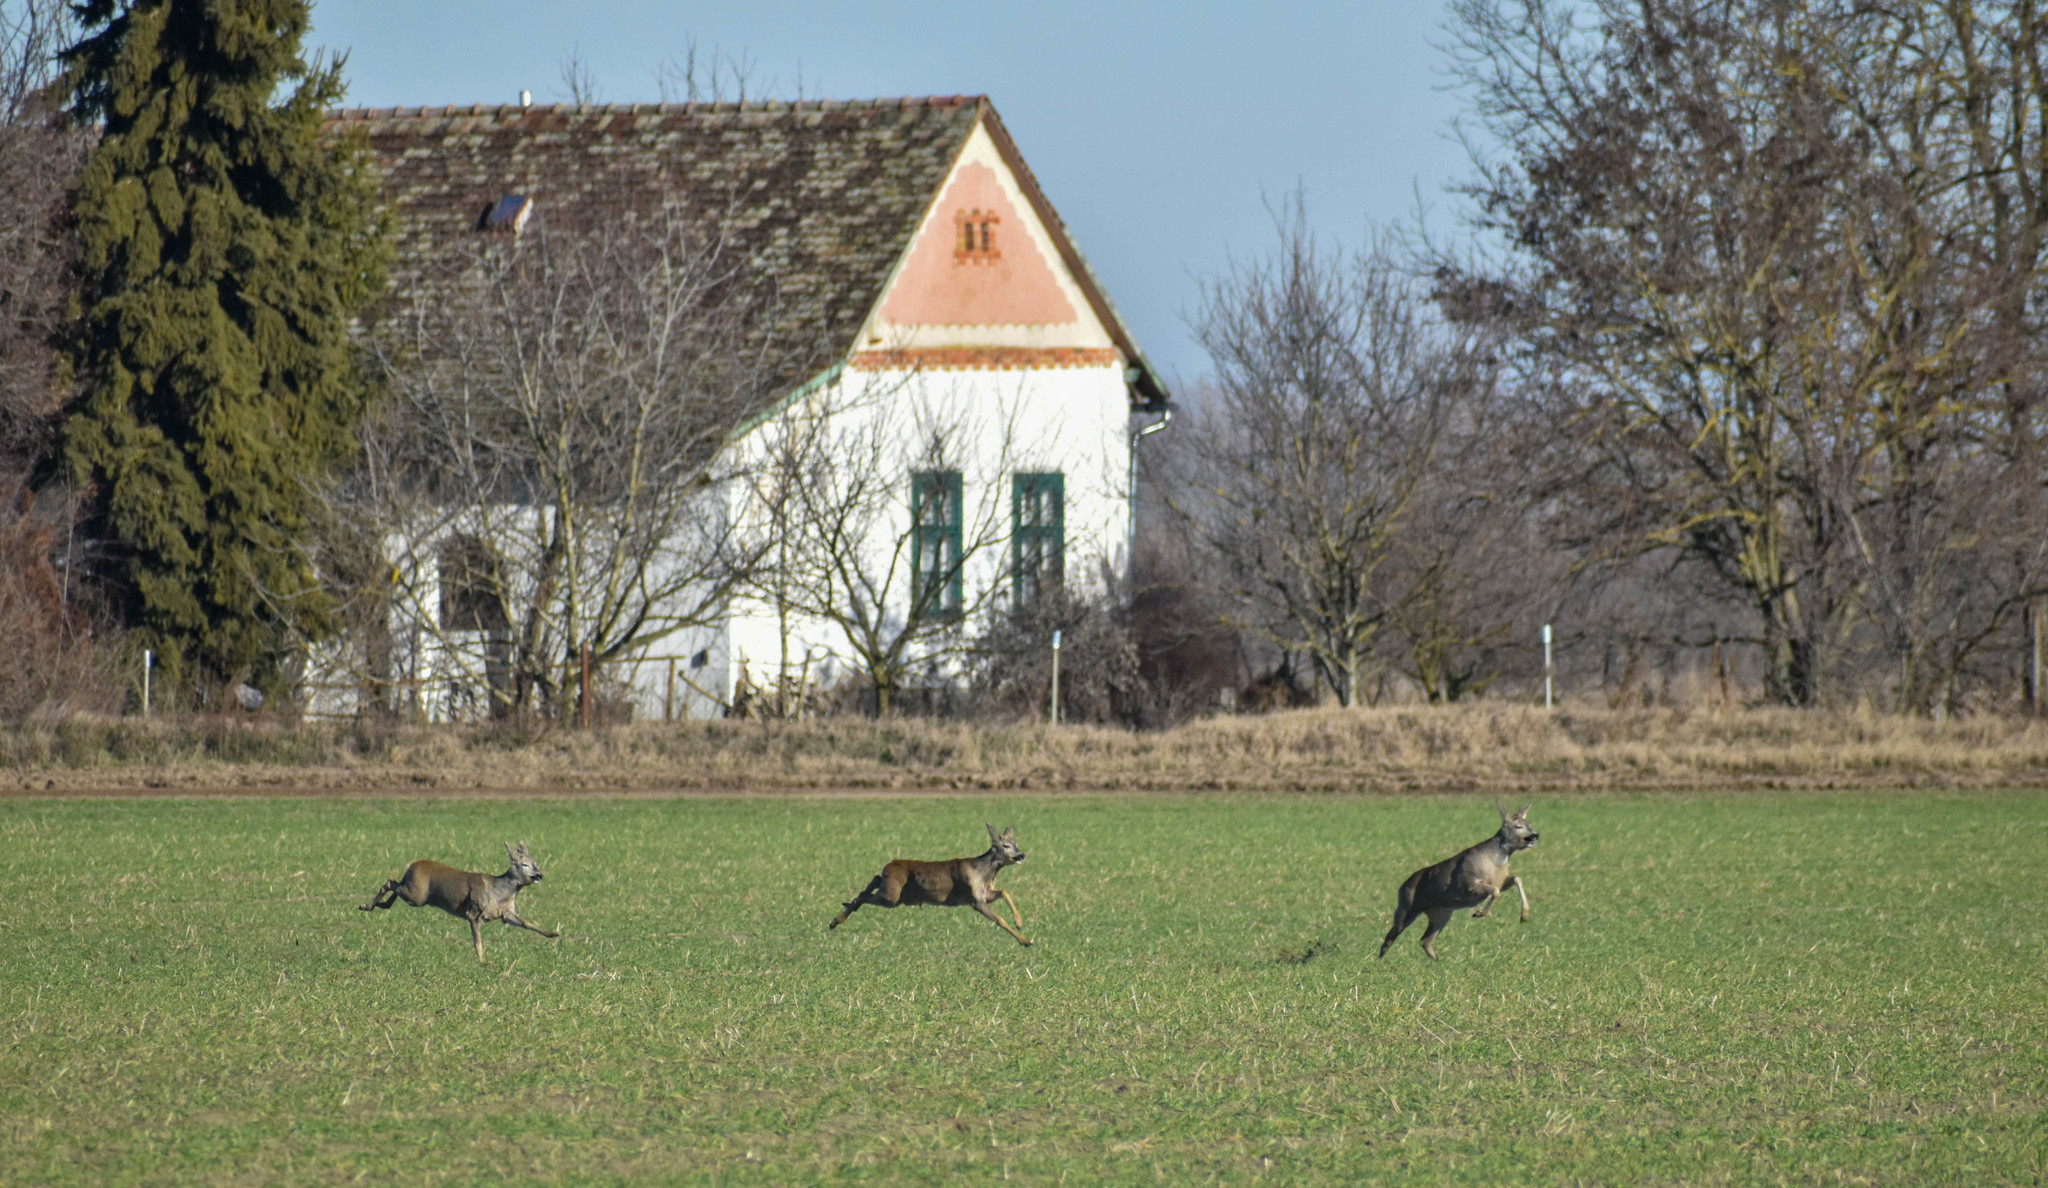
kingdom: Animalia
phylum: Chordata
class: Mammalia
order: Artiodactyla
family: Cervidae
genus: Capreolus
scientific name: Capreolus capreolus
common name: Western roe deer
